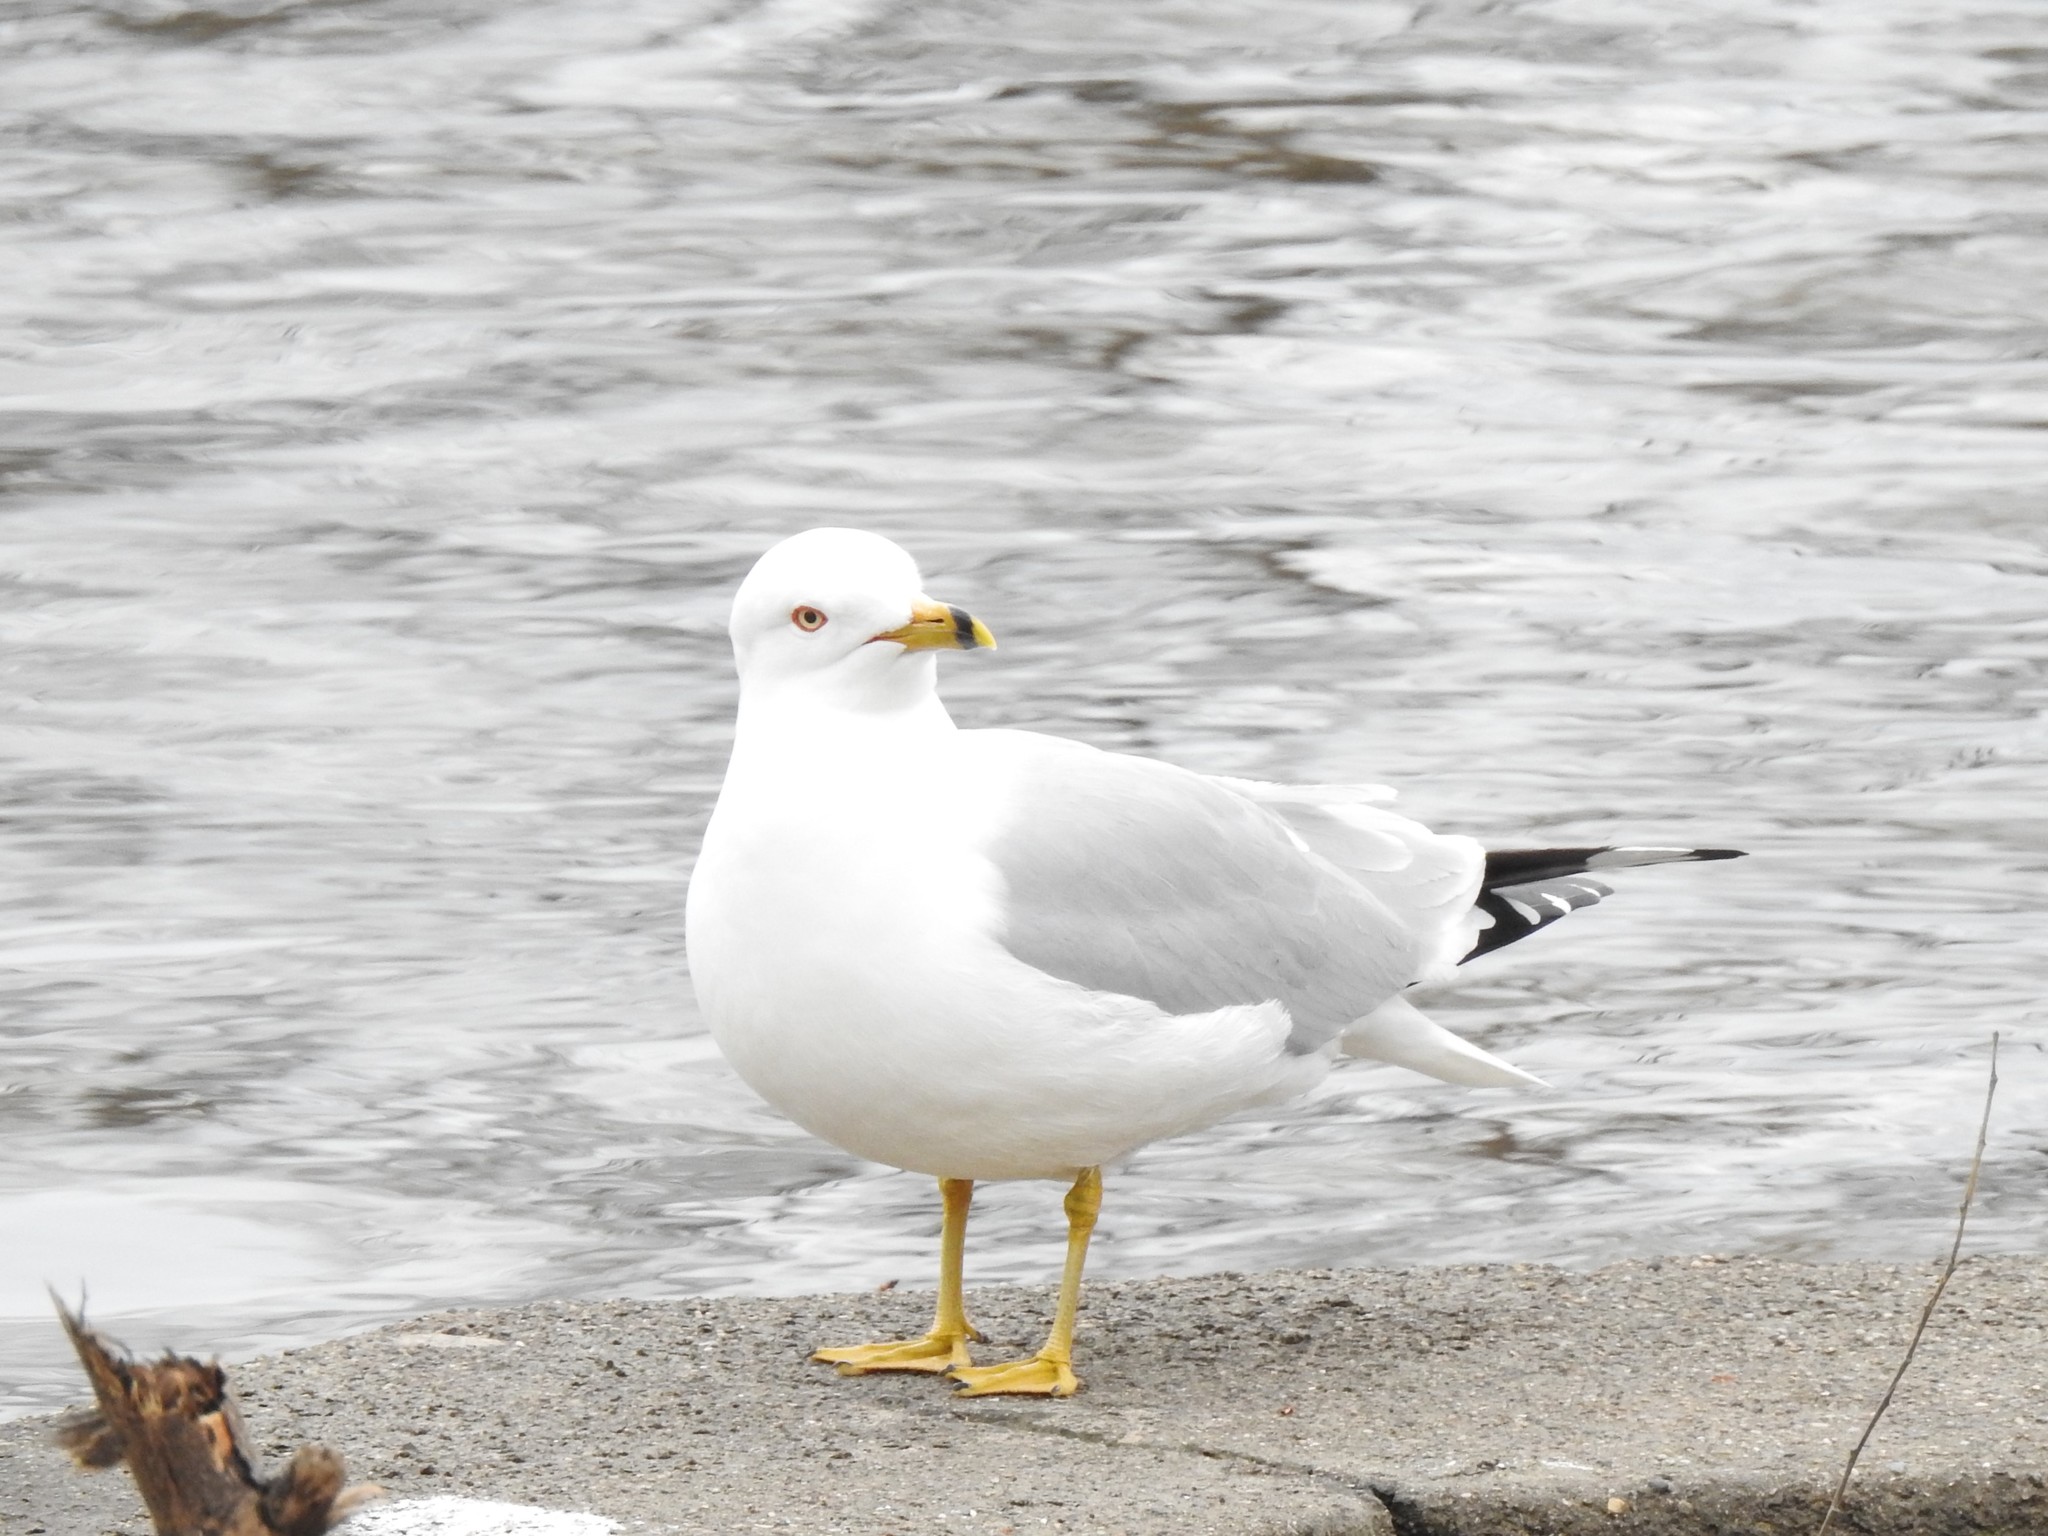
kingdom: Animalia
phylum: Chordata
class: Aves
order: Charadriiformes
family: Laridae
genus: Larus
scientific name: Larus delawarensis
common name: Ring-billed gull
